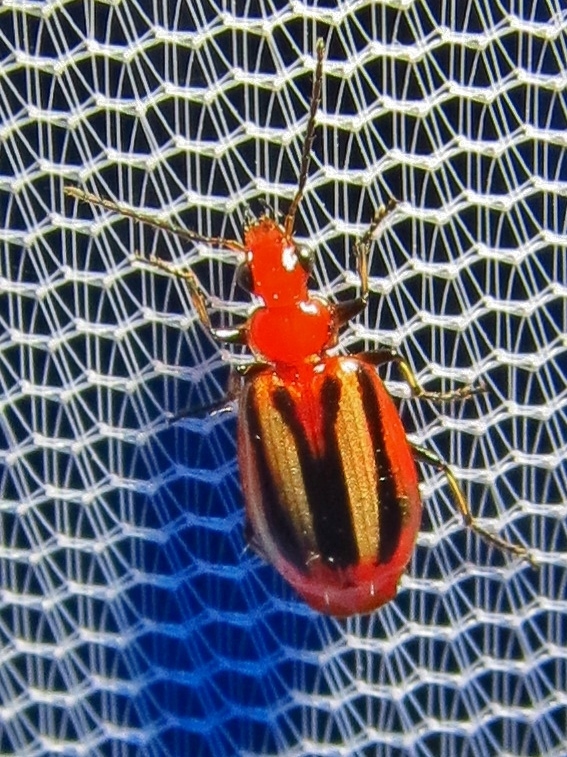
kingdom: Animalia
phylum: Arthropoda
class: Insecta
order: Coleoptera
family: Carabidae
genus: Lebia
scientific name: Lebia vittata
